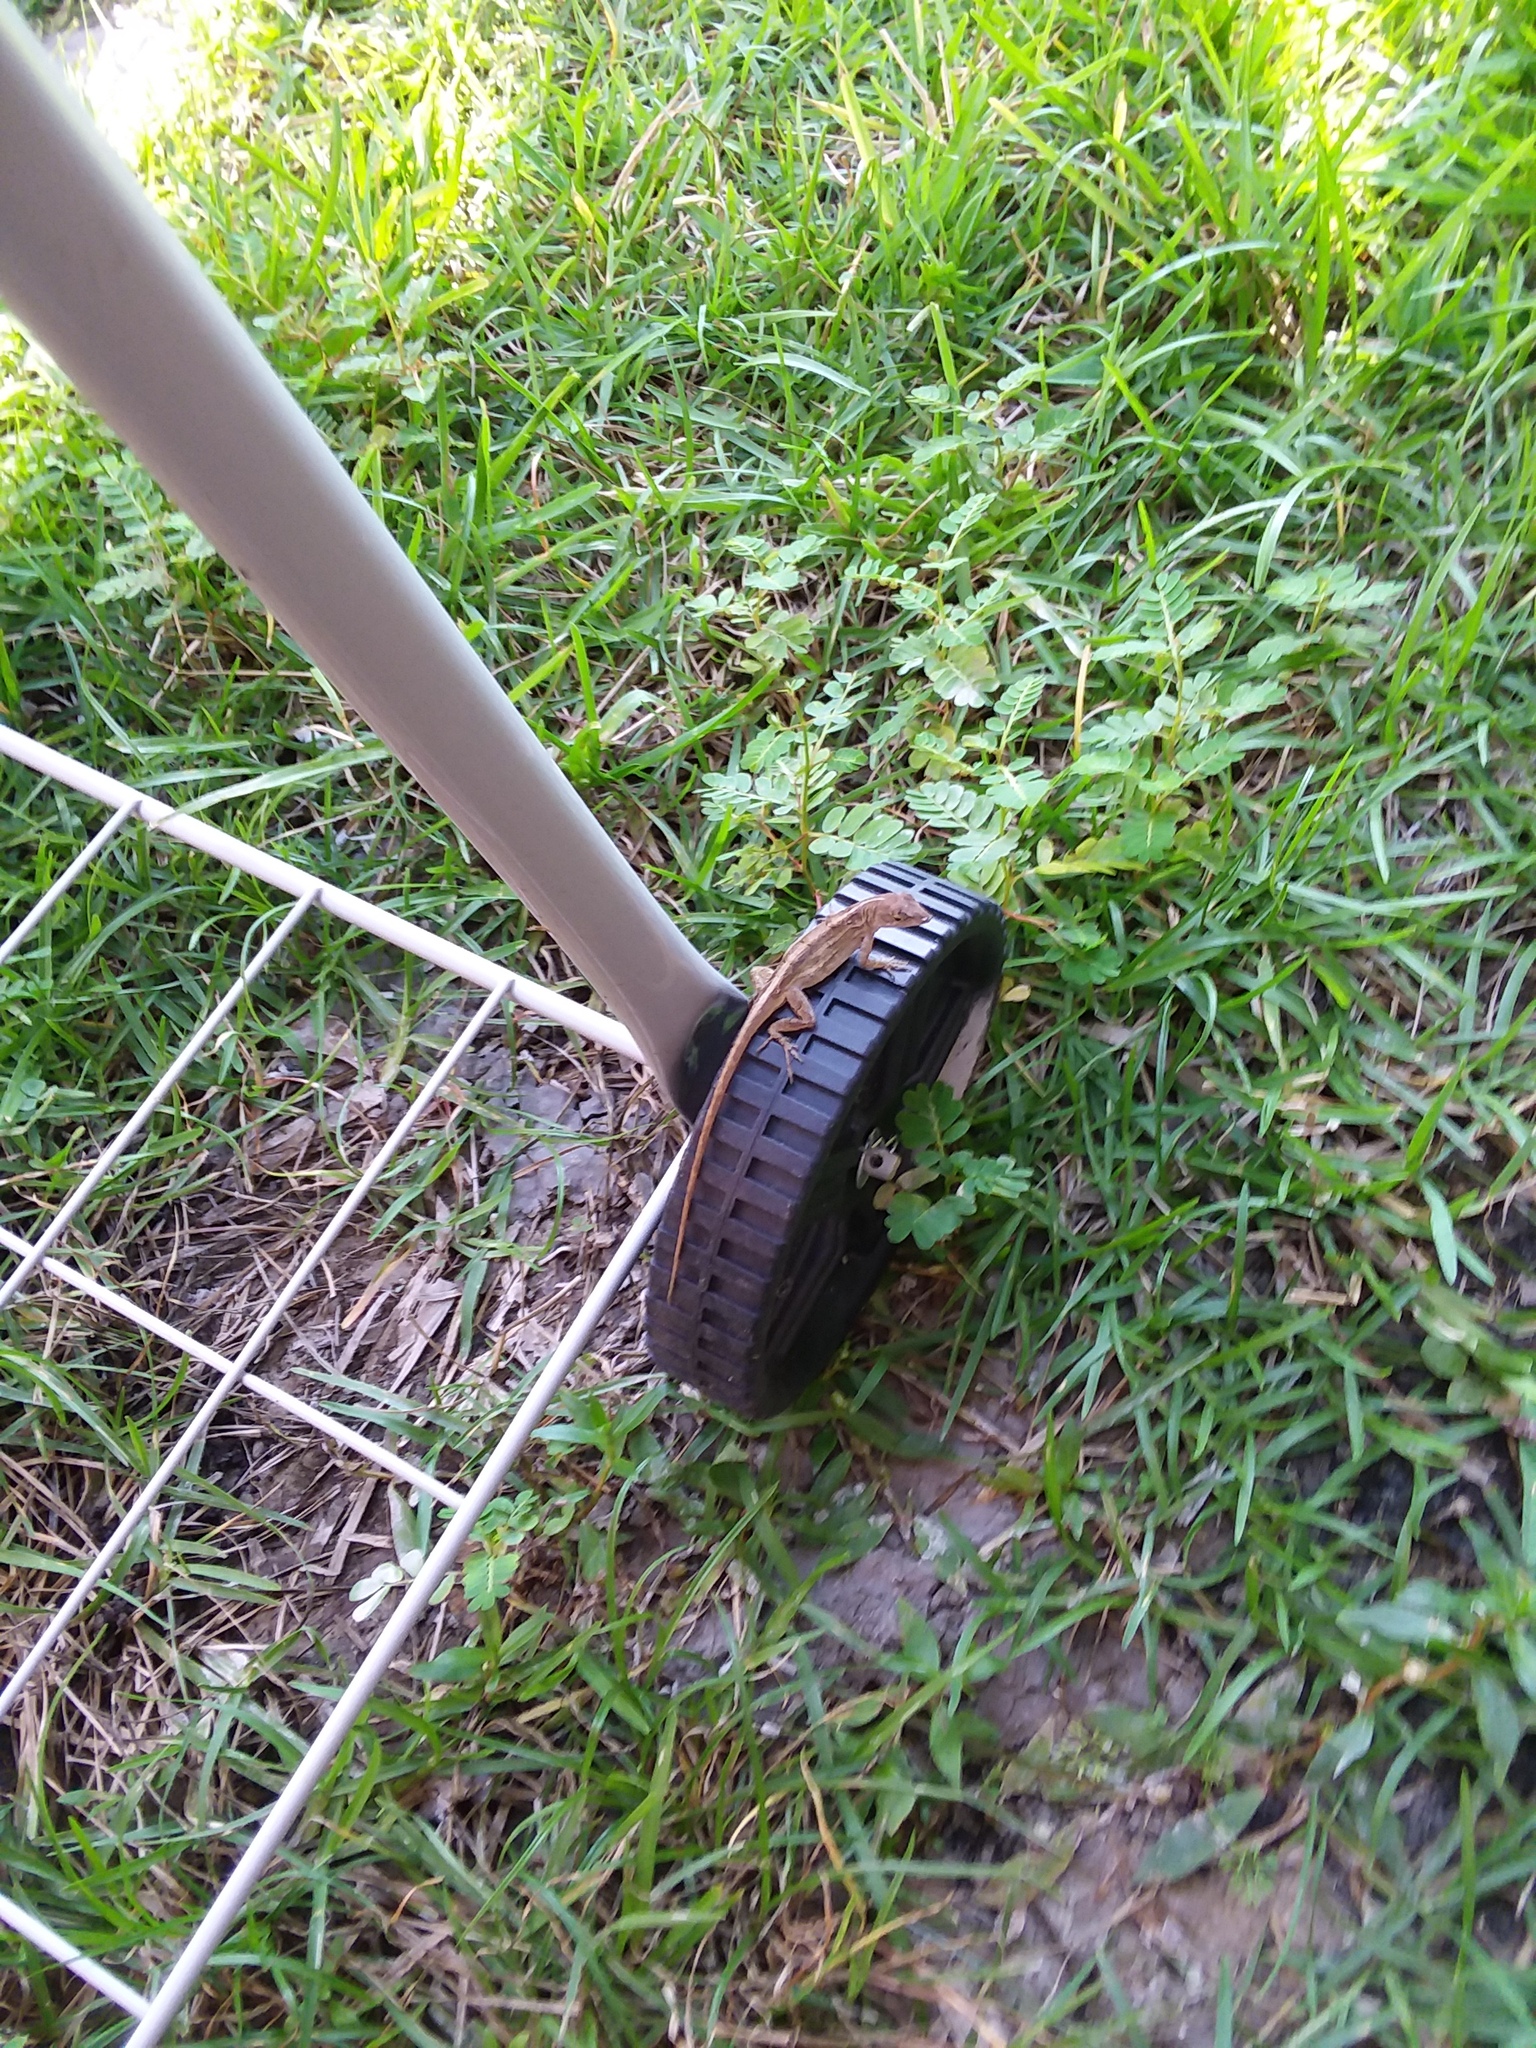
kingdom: Animalia
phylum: Chordata
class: Squamata
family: Dactyloidae
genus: Anolis
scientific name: Anolis sagrei
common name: Brown anole
